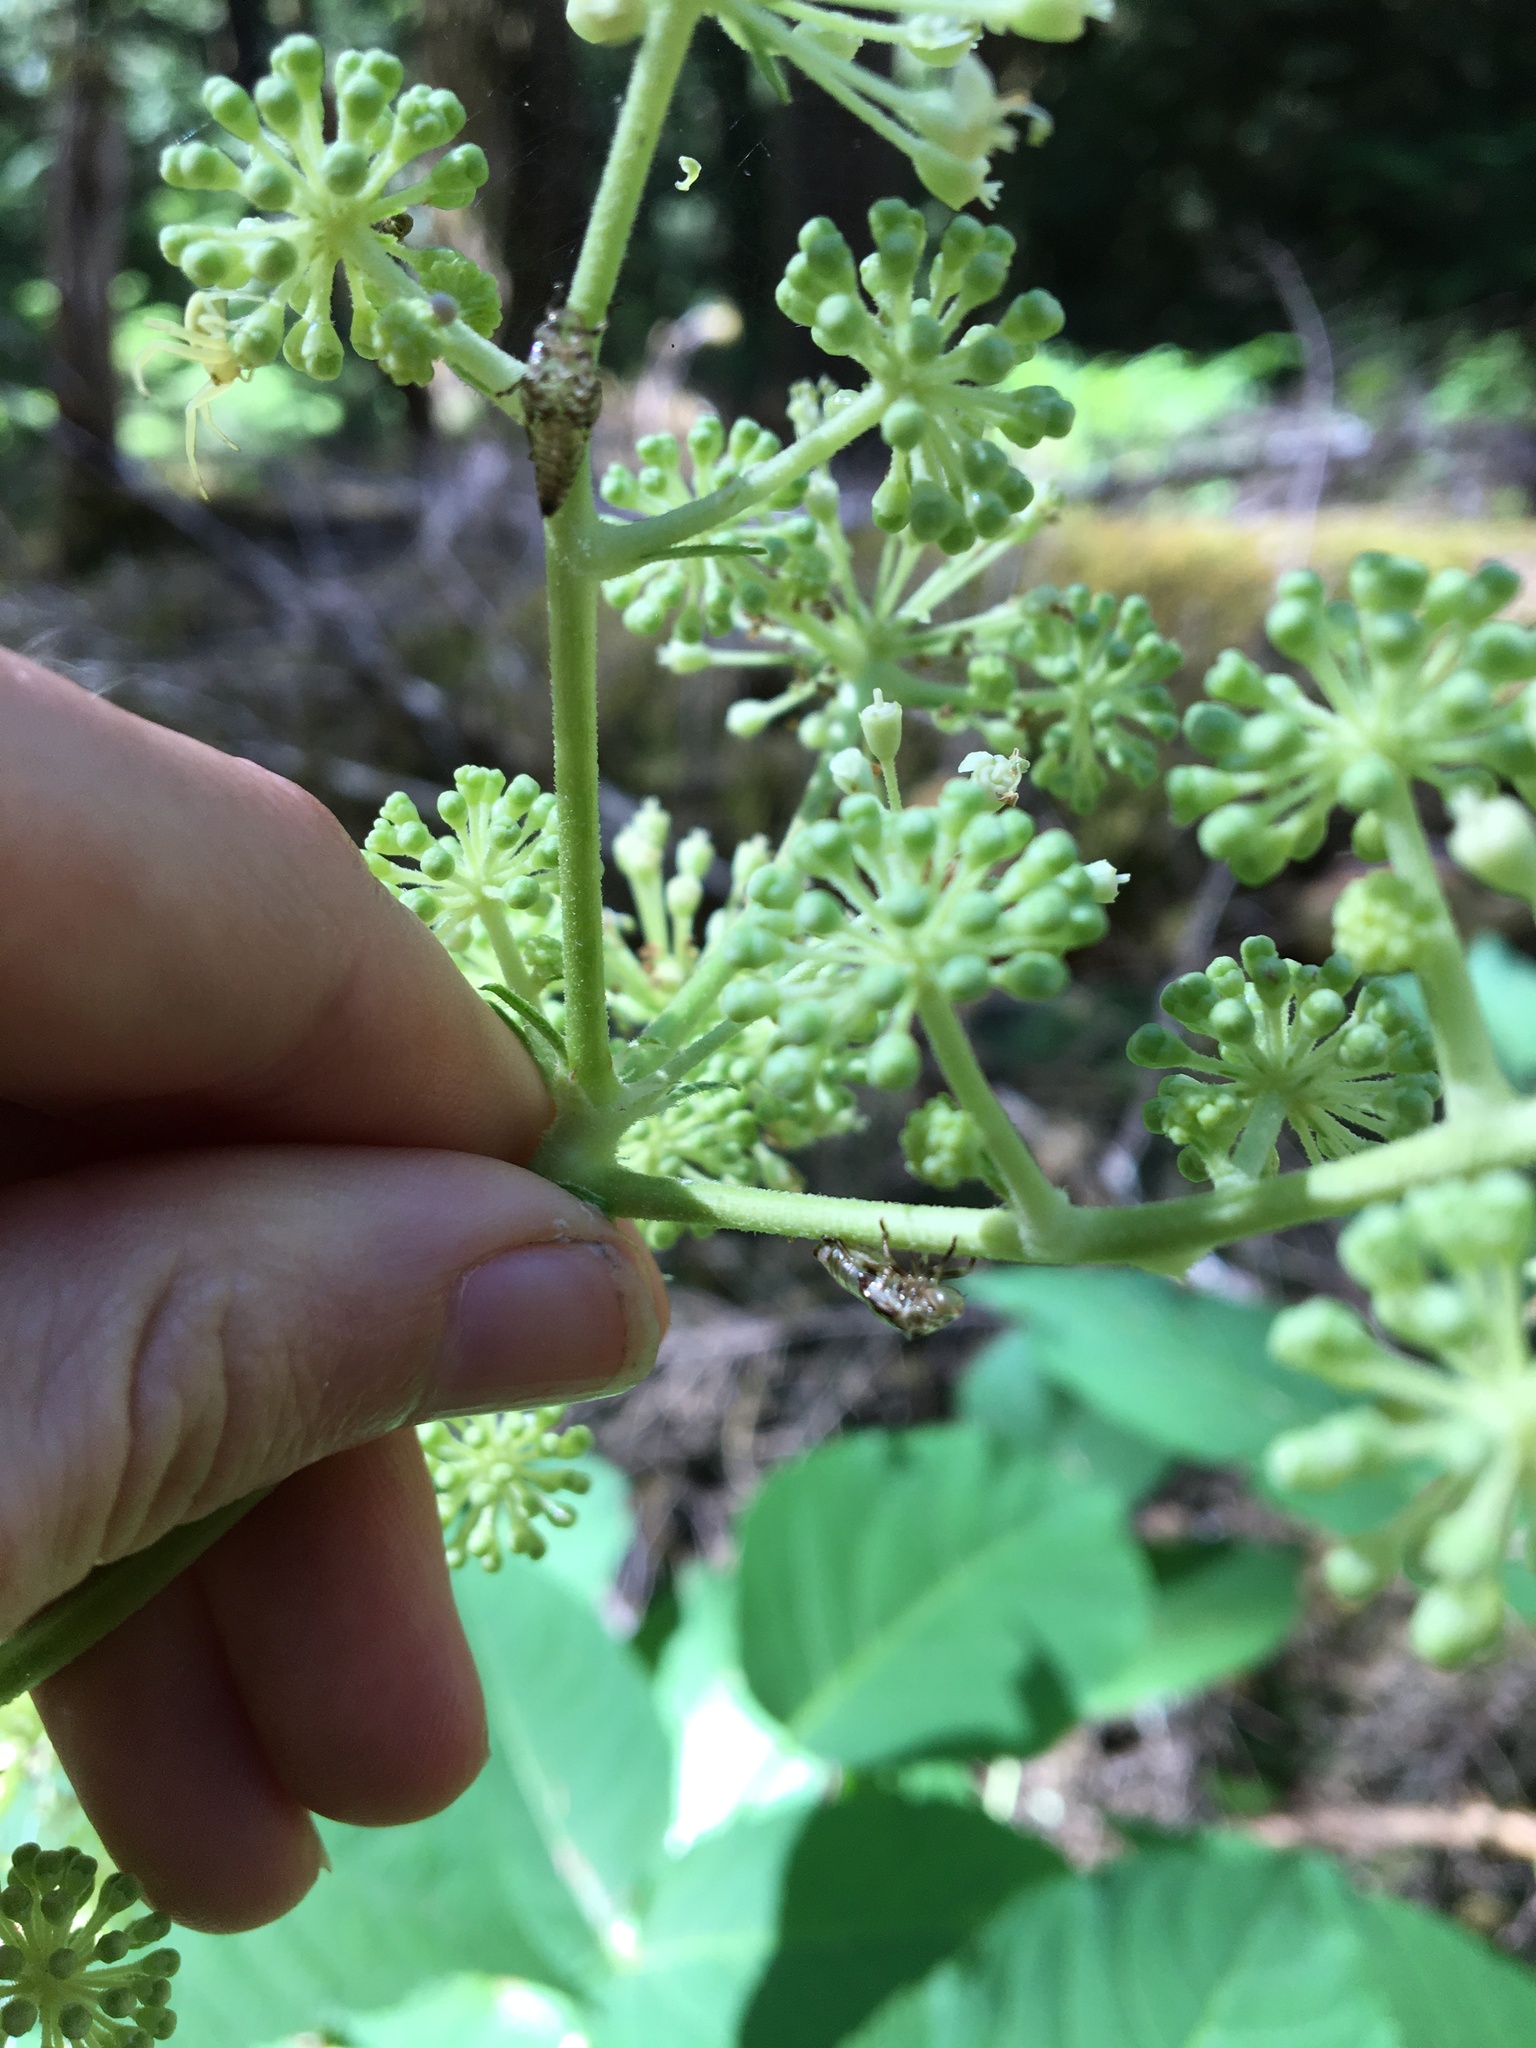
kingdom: Plantae
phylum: Tracheophyta
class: Magnoliopsida
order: Apiales
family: Araliaceae
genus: Aralia
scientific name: Aralia californica
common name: California-ginseng
